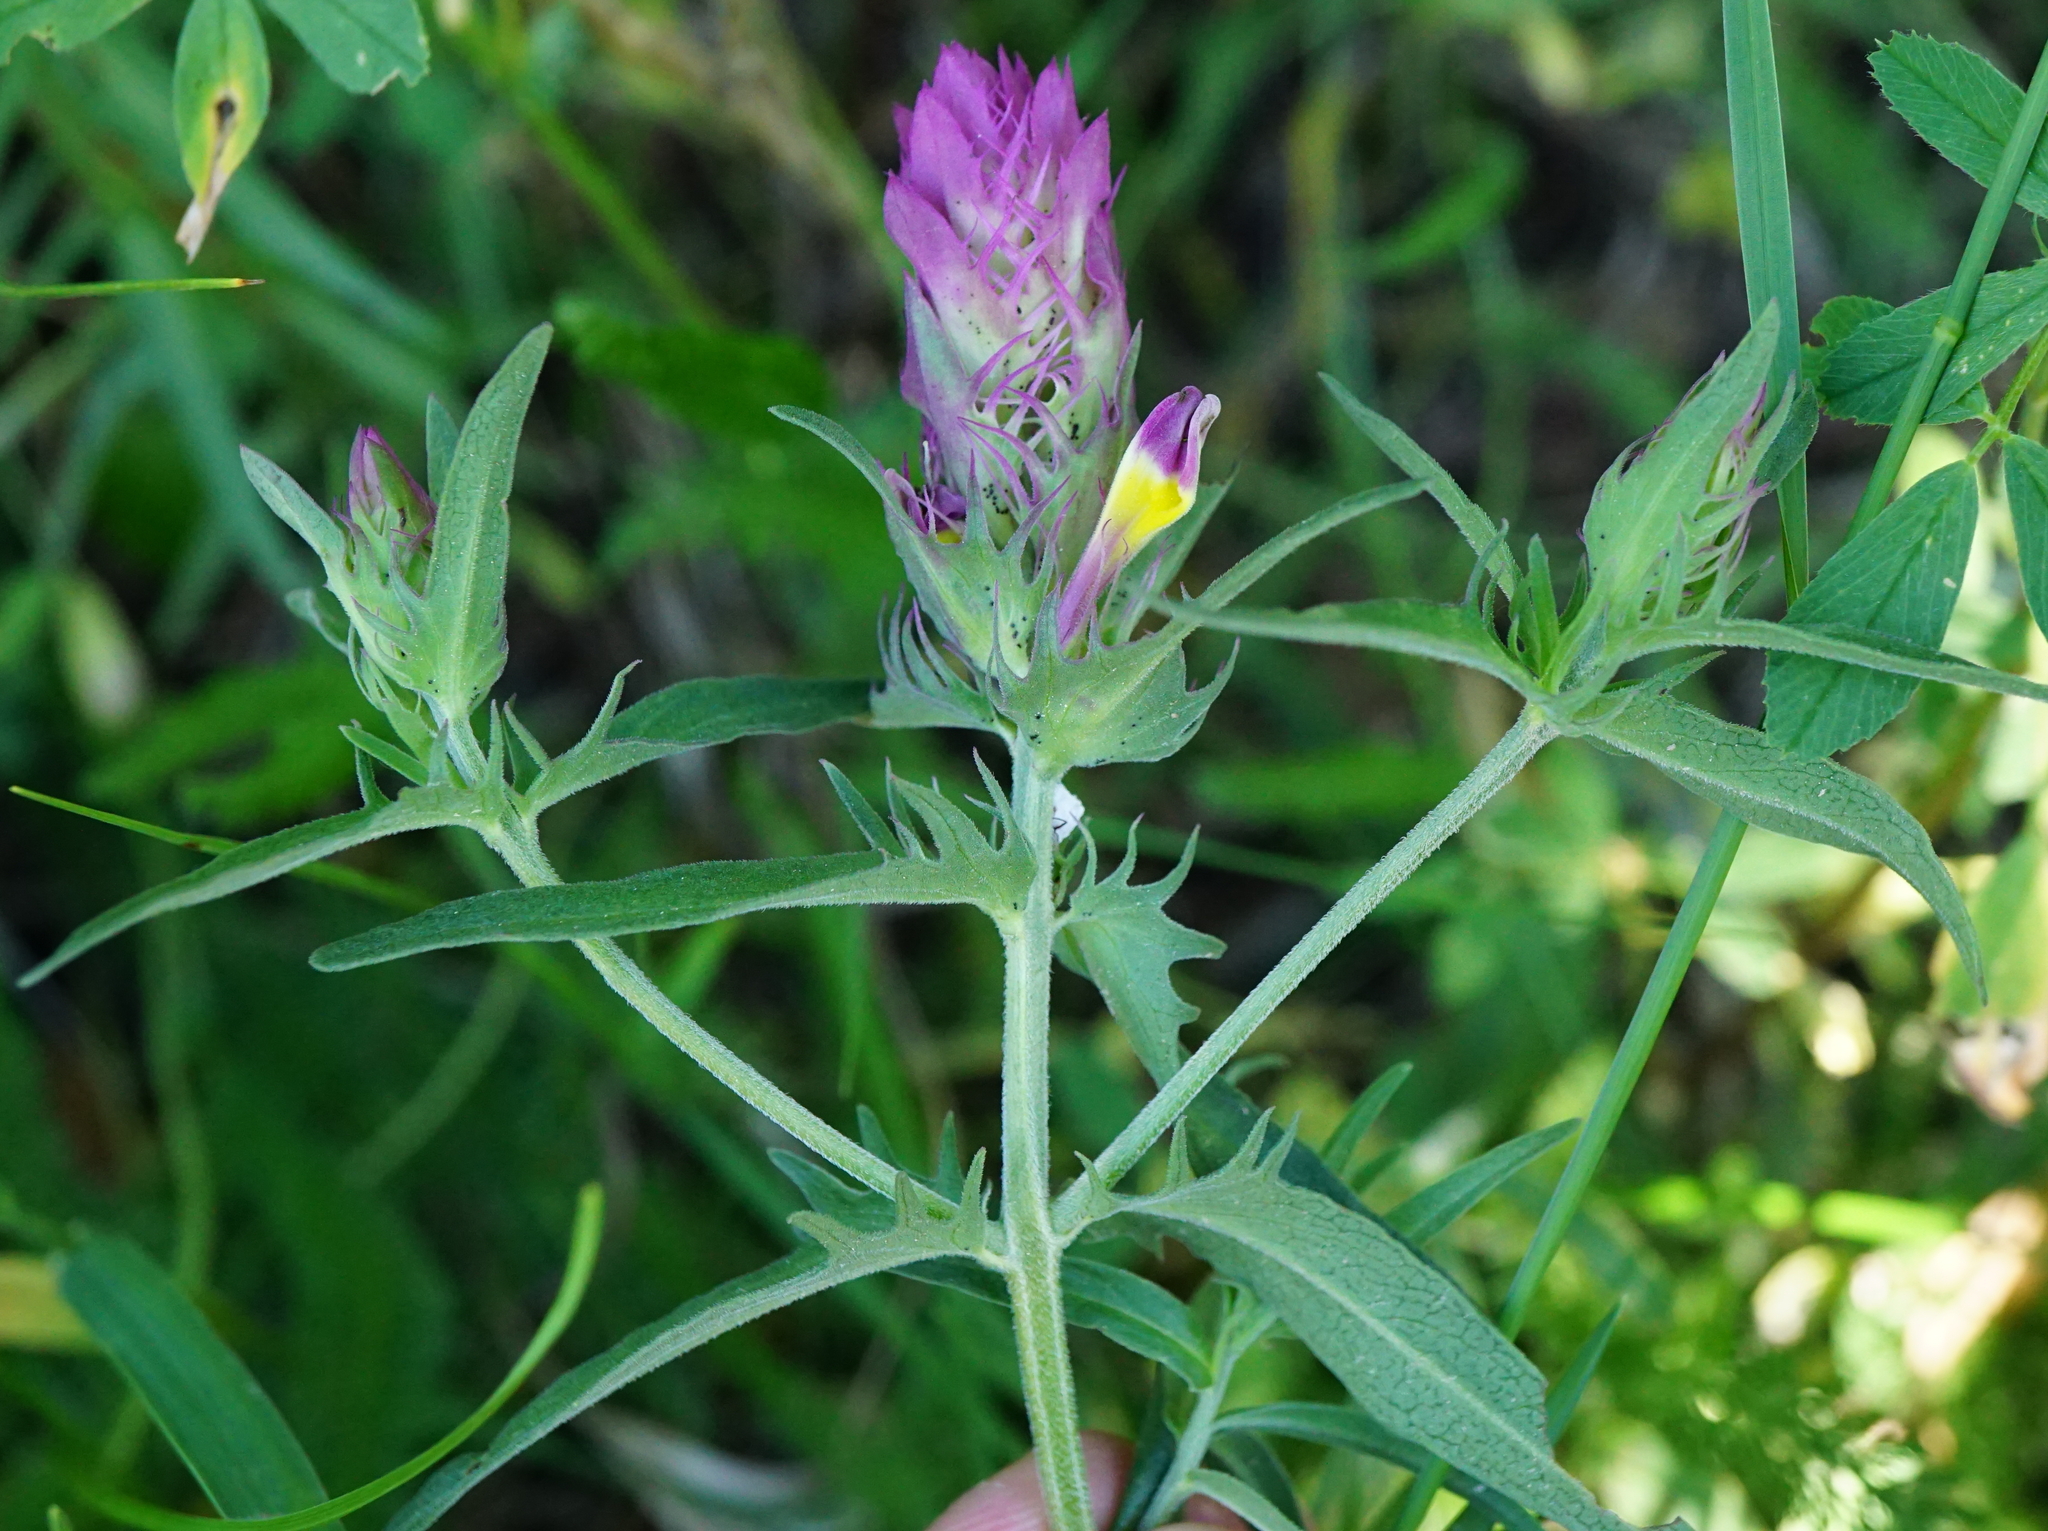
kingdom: Plantae
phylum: Tracheophyta
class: Magnoliopsida
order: Lamiales
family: Orobanchaceae
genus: Melampyrum
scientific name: Melampyrum arvense
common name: Field cow-wheat
